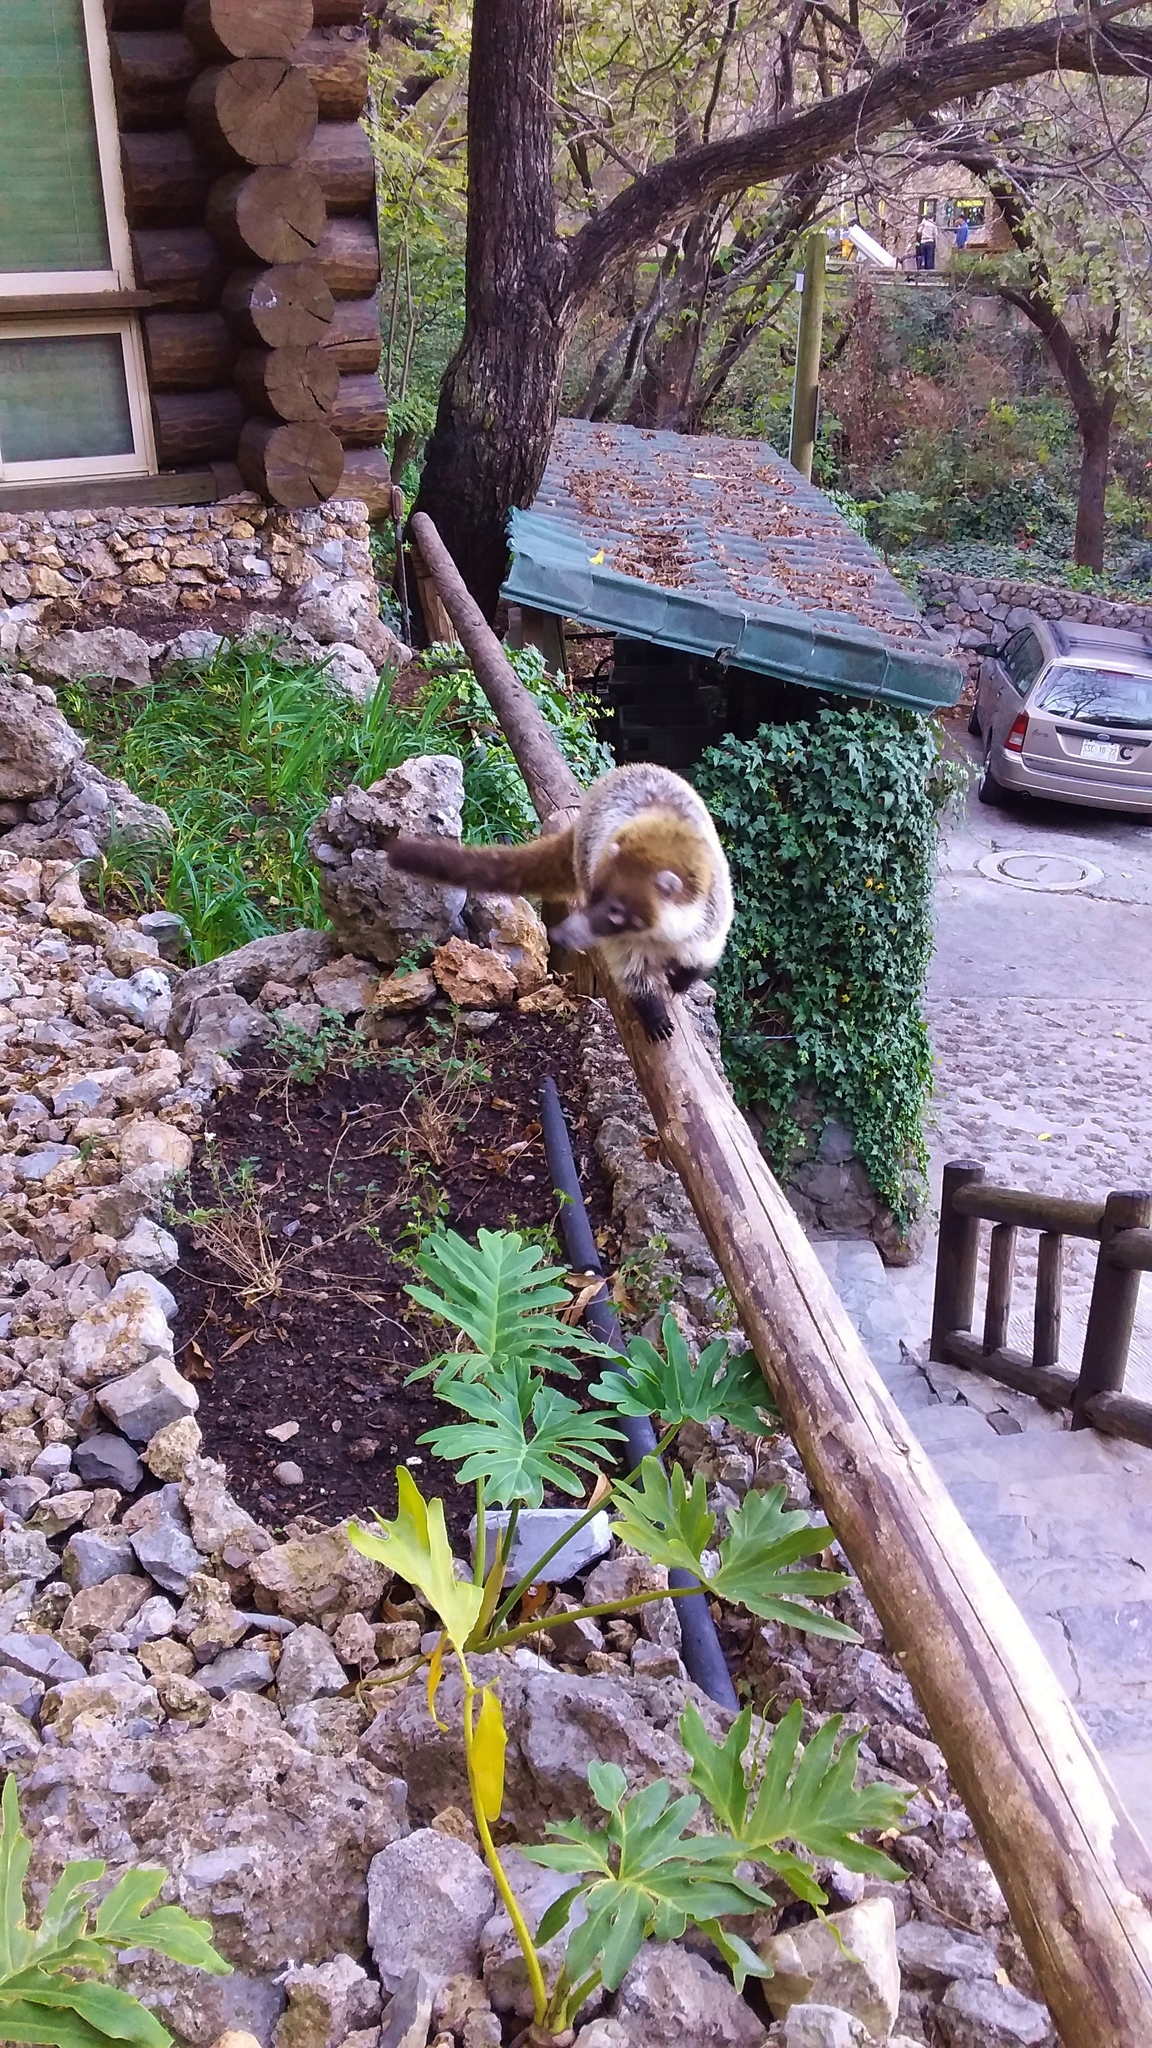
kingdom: Animalia
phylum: Chordata
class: Mammalia
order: Carnivora
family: Procyonidae
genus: Nasua
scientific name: Nasua narica
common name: White-nosed coati
